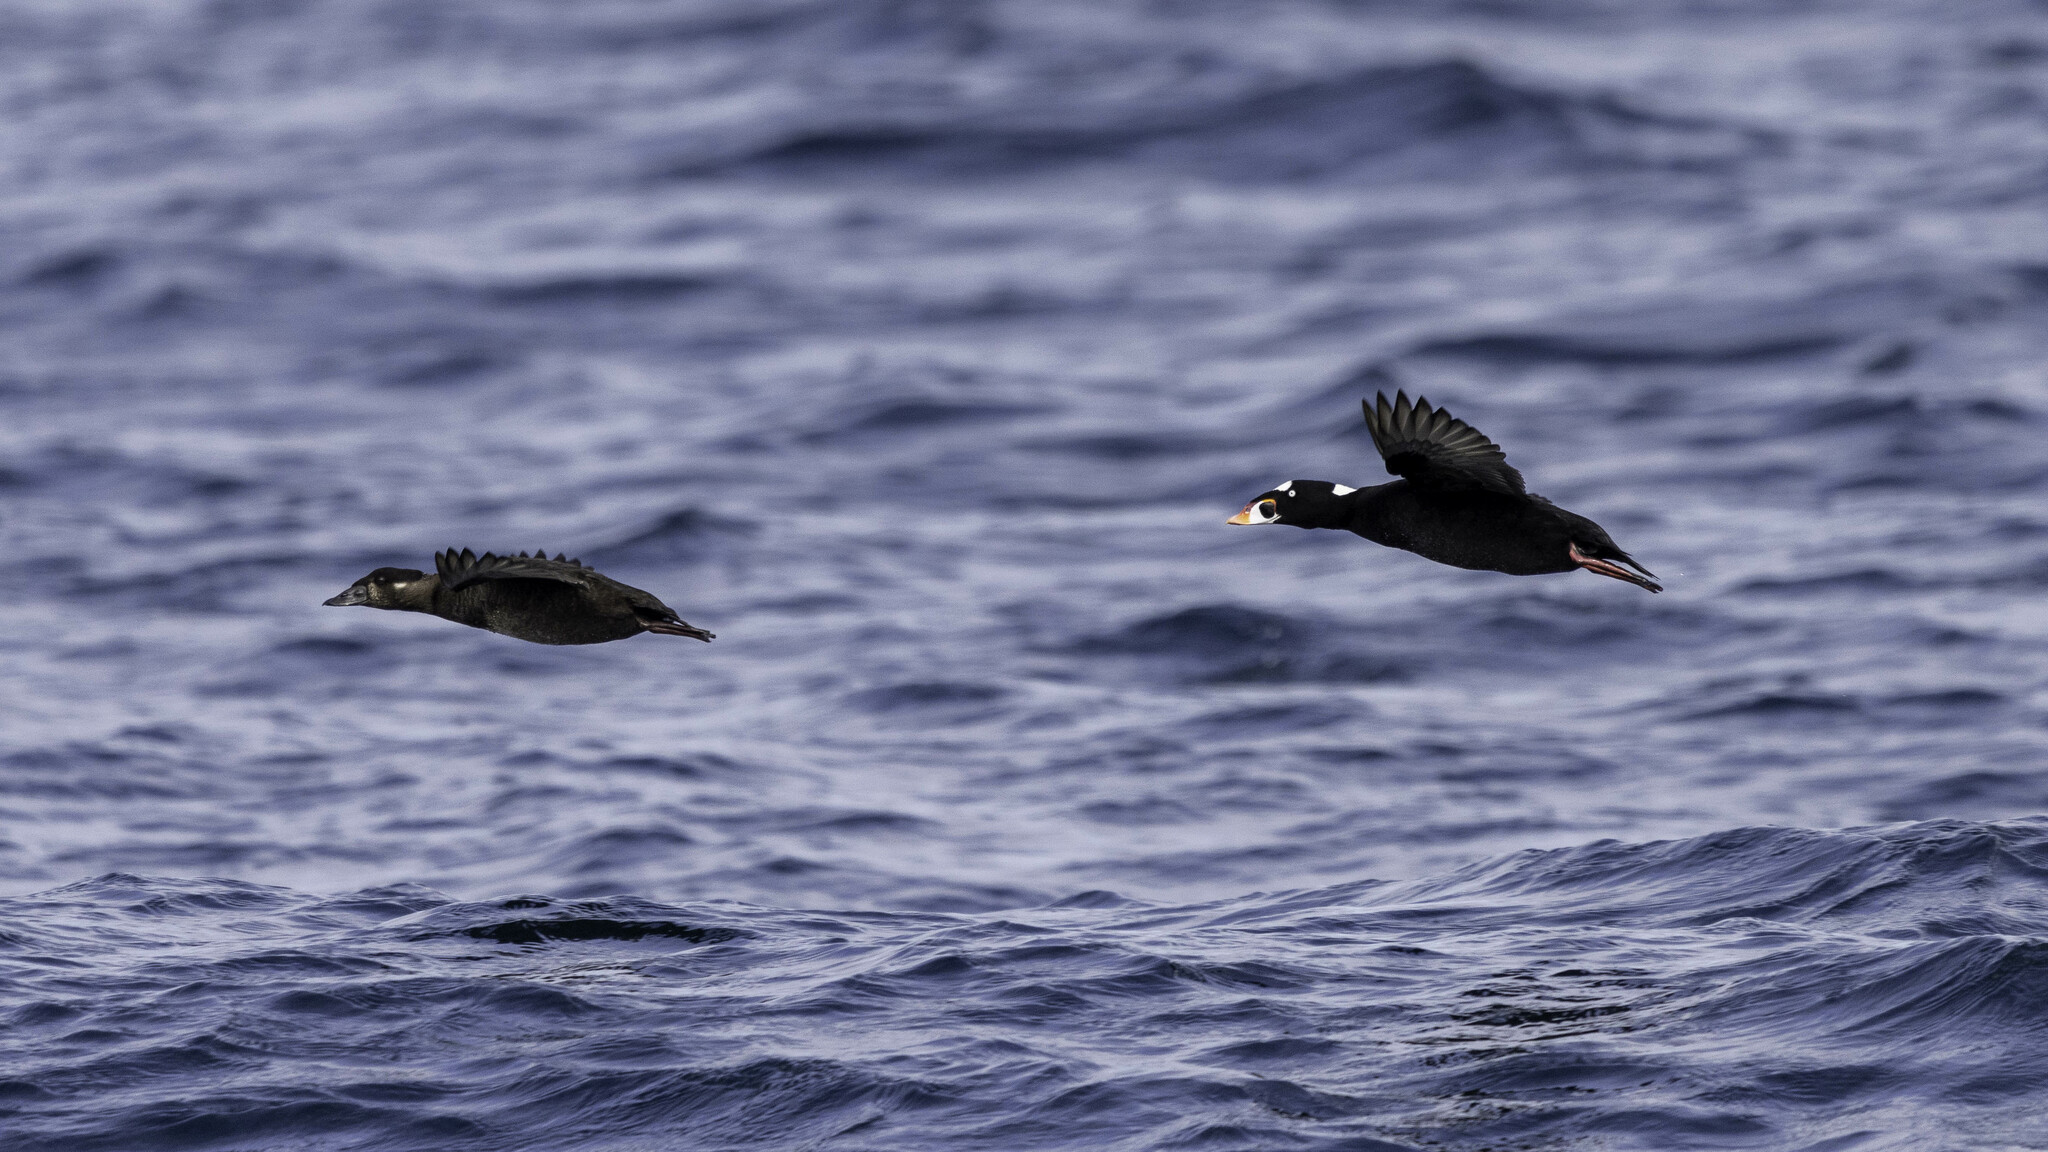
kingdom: Animalia
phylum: Chordata
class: Aves
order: Anseriformes
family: Anatidae
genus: Melanitta
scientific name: Melanitta perspicillata
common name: Surf scoter
